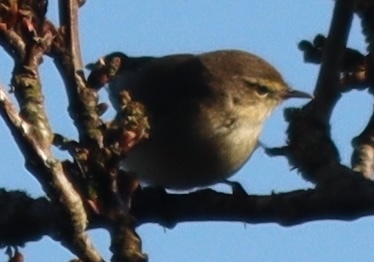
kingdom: Animalia
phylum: Chordata
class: Aves
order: Passeriformes
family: Phylloscopidae
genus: Phylloscopus
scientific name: Phylloscopus collybita
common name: Common chiffchaff
